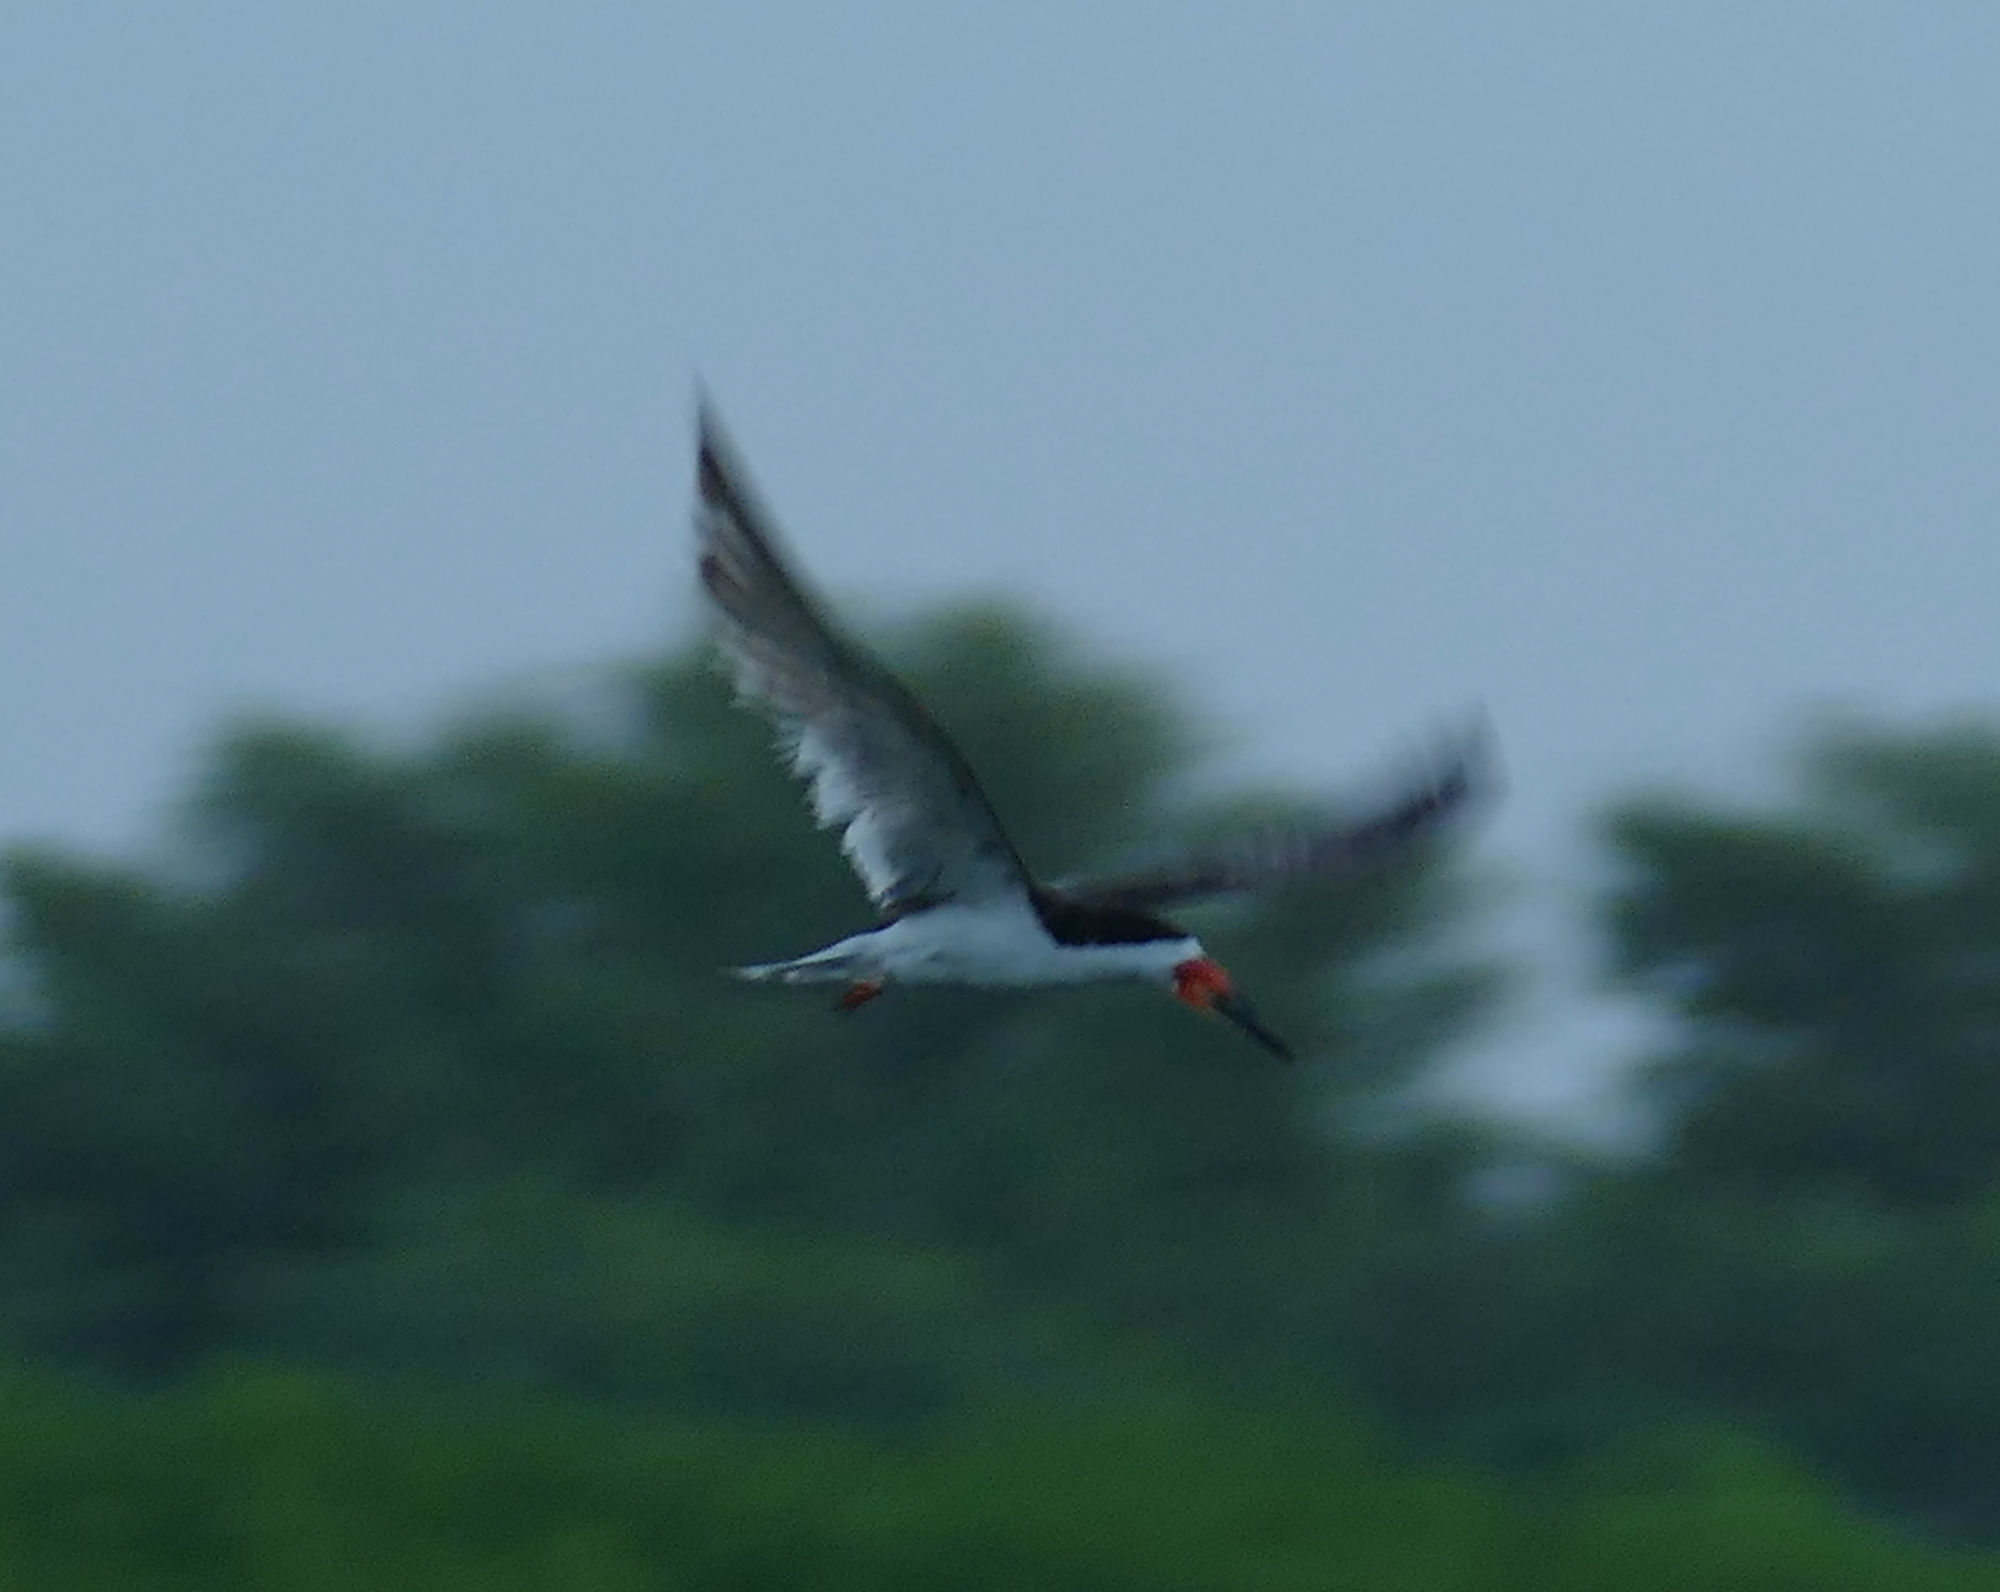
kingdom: Animalia
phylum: Chordata
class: Aves
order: Charadriiformes
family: Laridae
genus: Rynchops
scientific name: Rynchops niger
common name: Black skimmer
